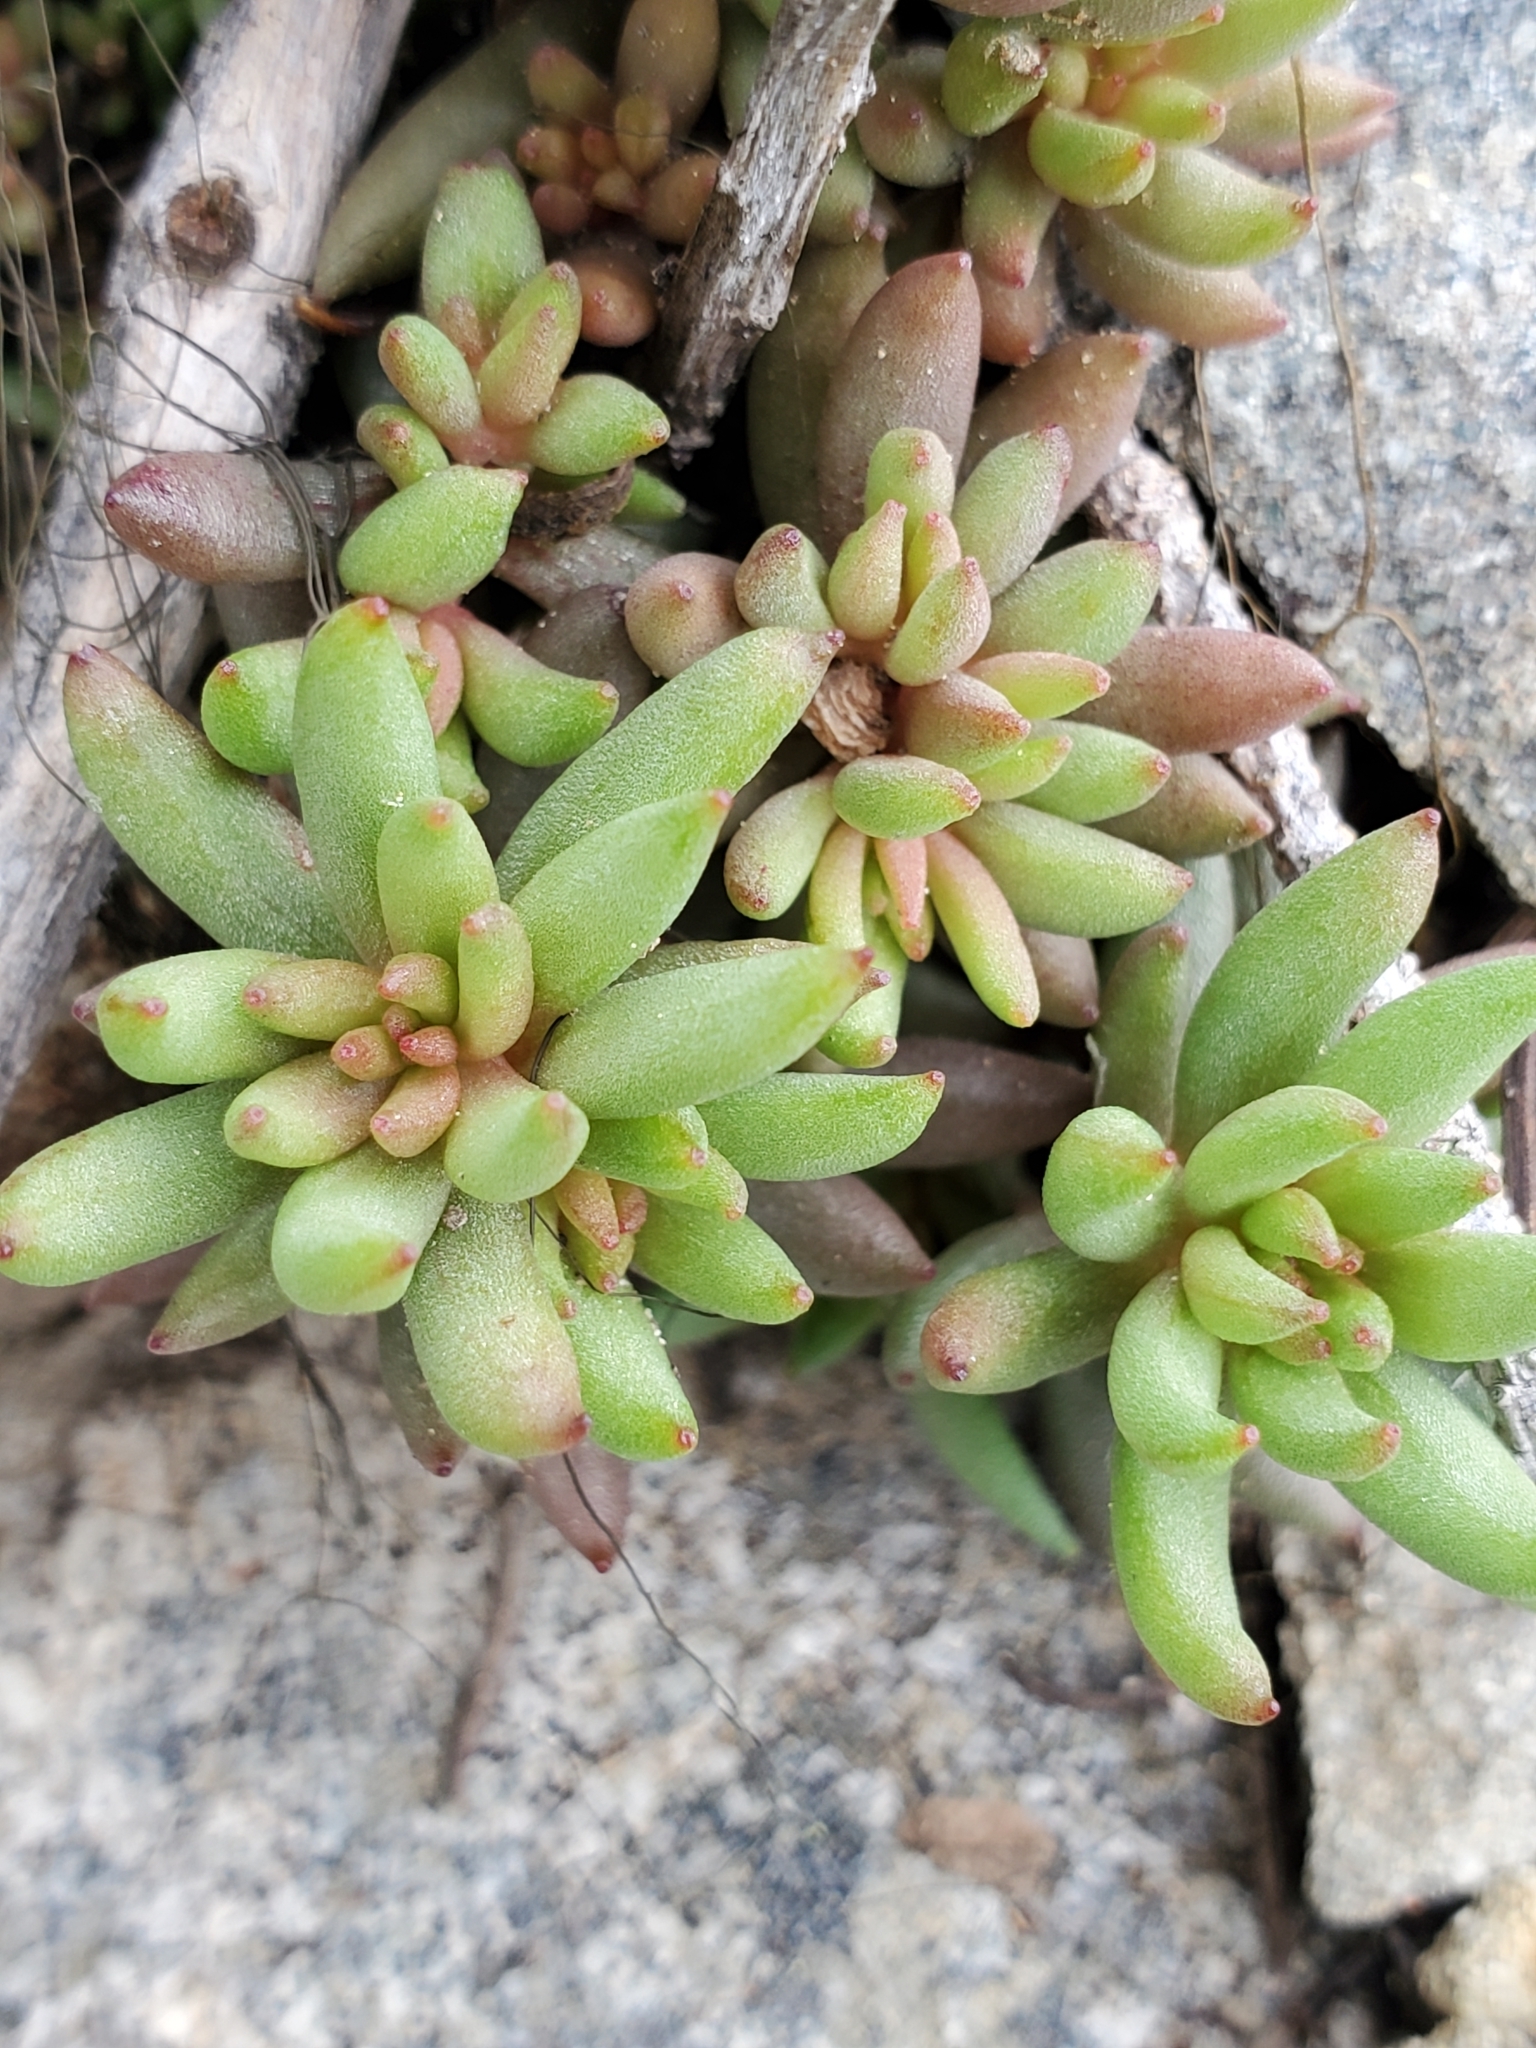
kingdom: Plantae
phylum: Tracheophyta
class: Magnoliopsida
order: Saxifragales
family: Crassulaceae
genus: Sedum
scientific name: Sedum lanceolatum
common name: Common stonecrop
